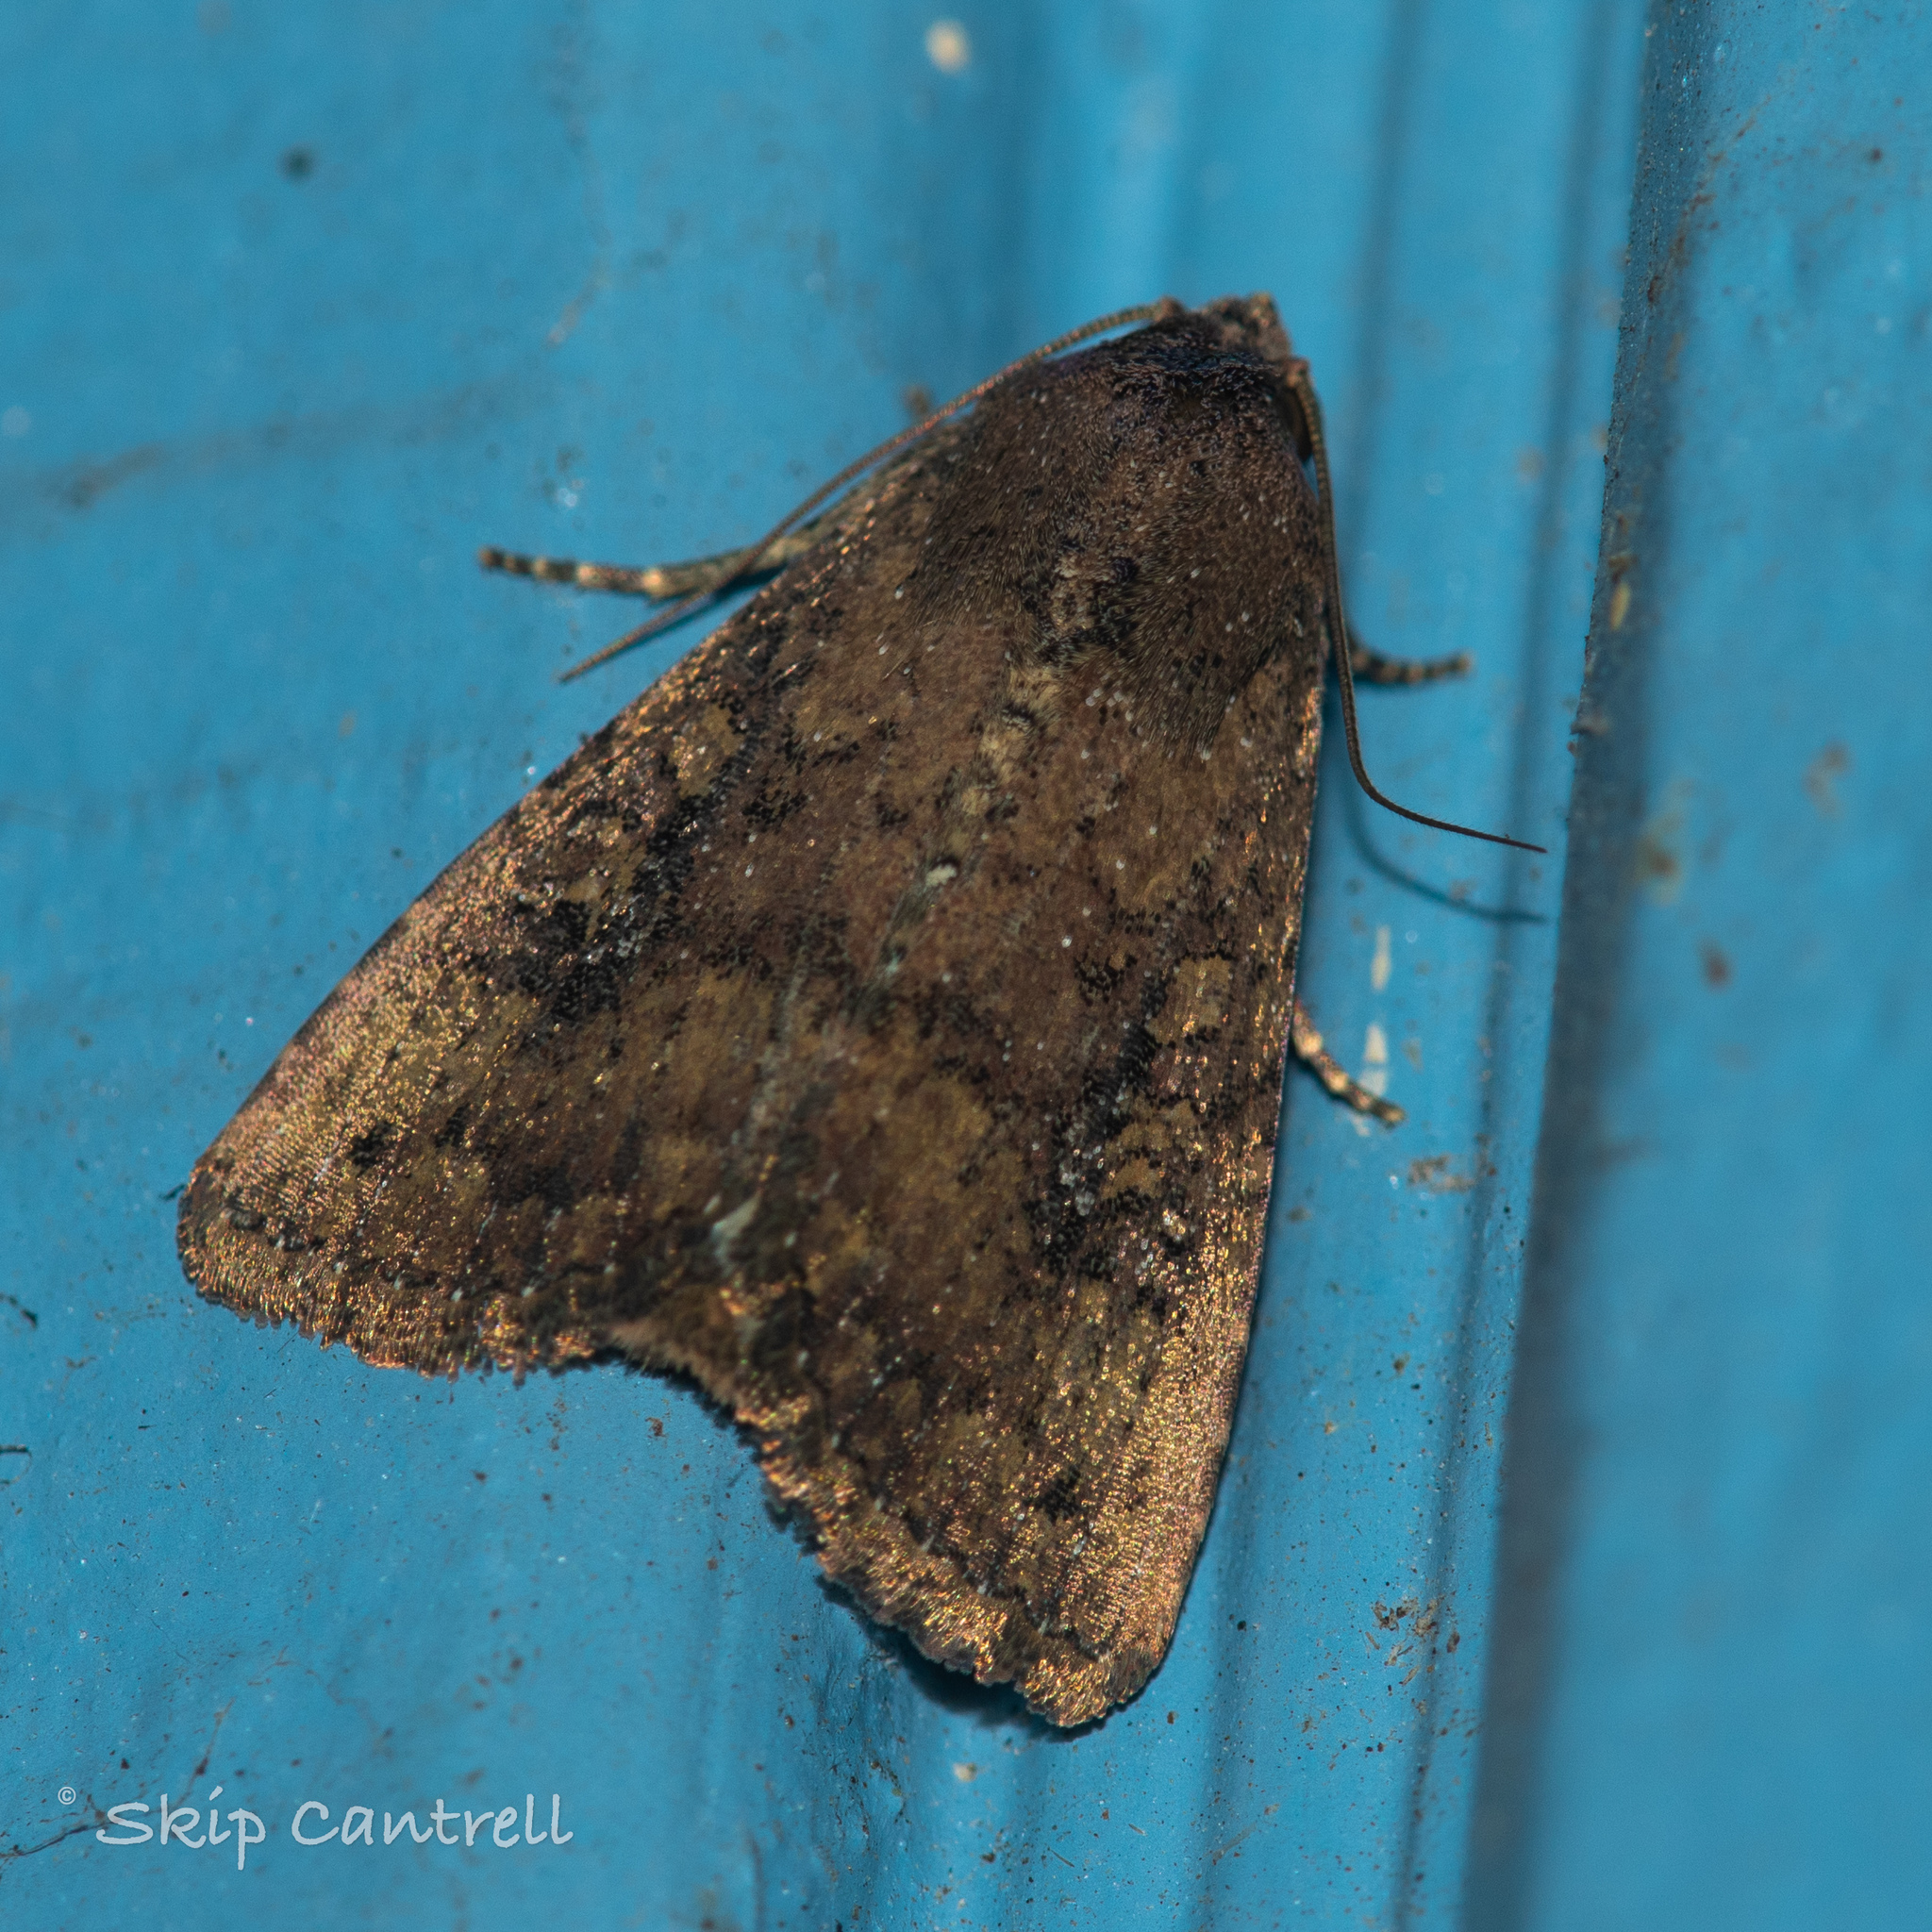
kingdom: Animalia
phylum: Arthropoda
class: Insecta
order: Lepidoptera
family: Noctuidae
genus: Condica
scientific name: Condica sutor
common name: Cobbler moth
